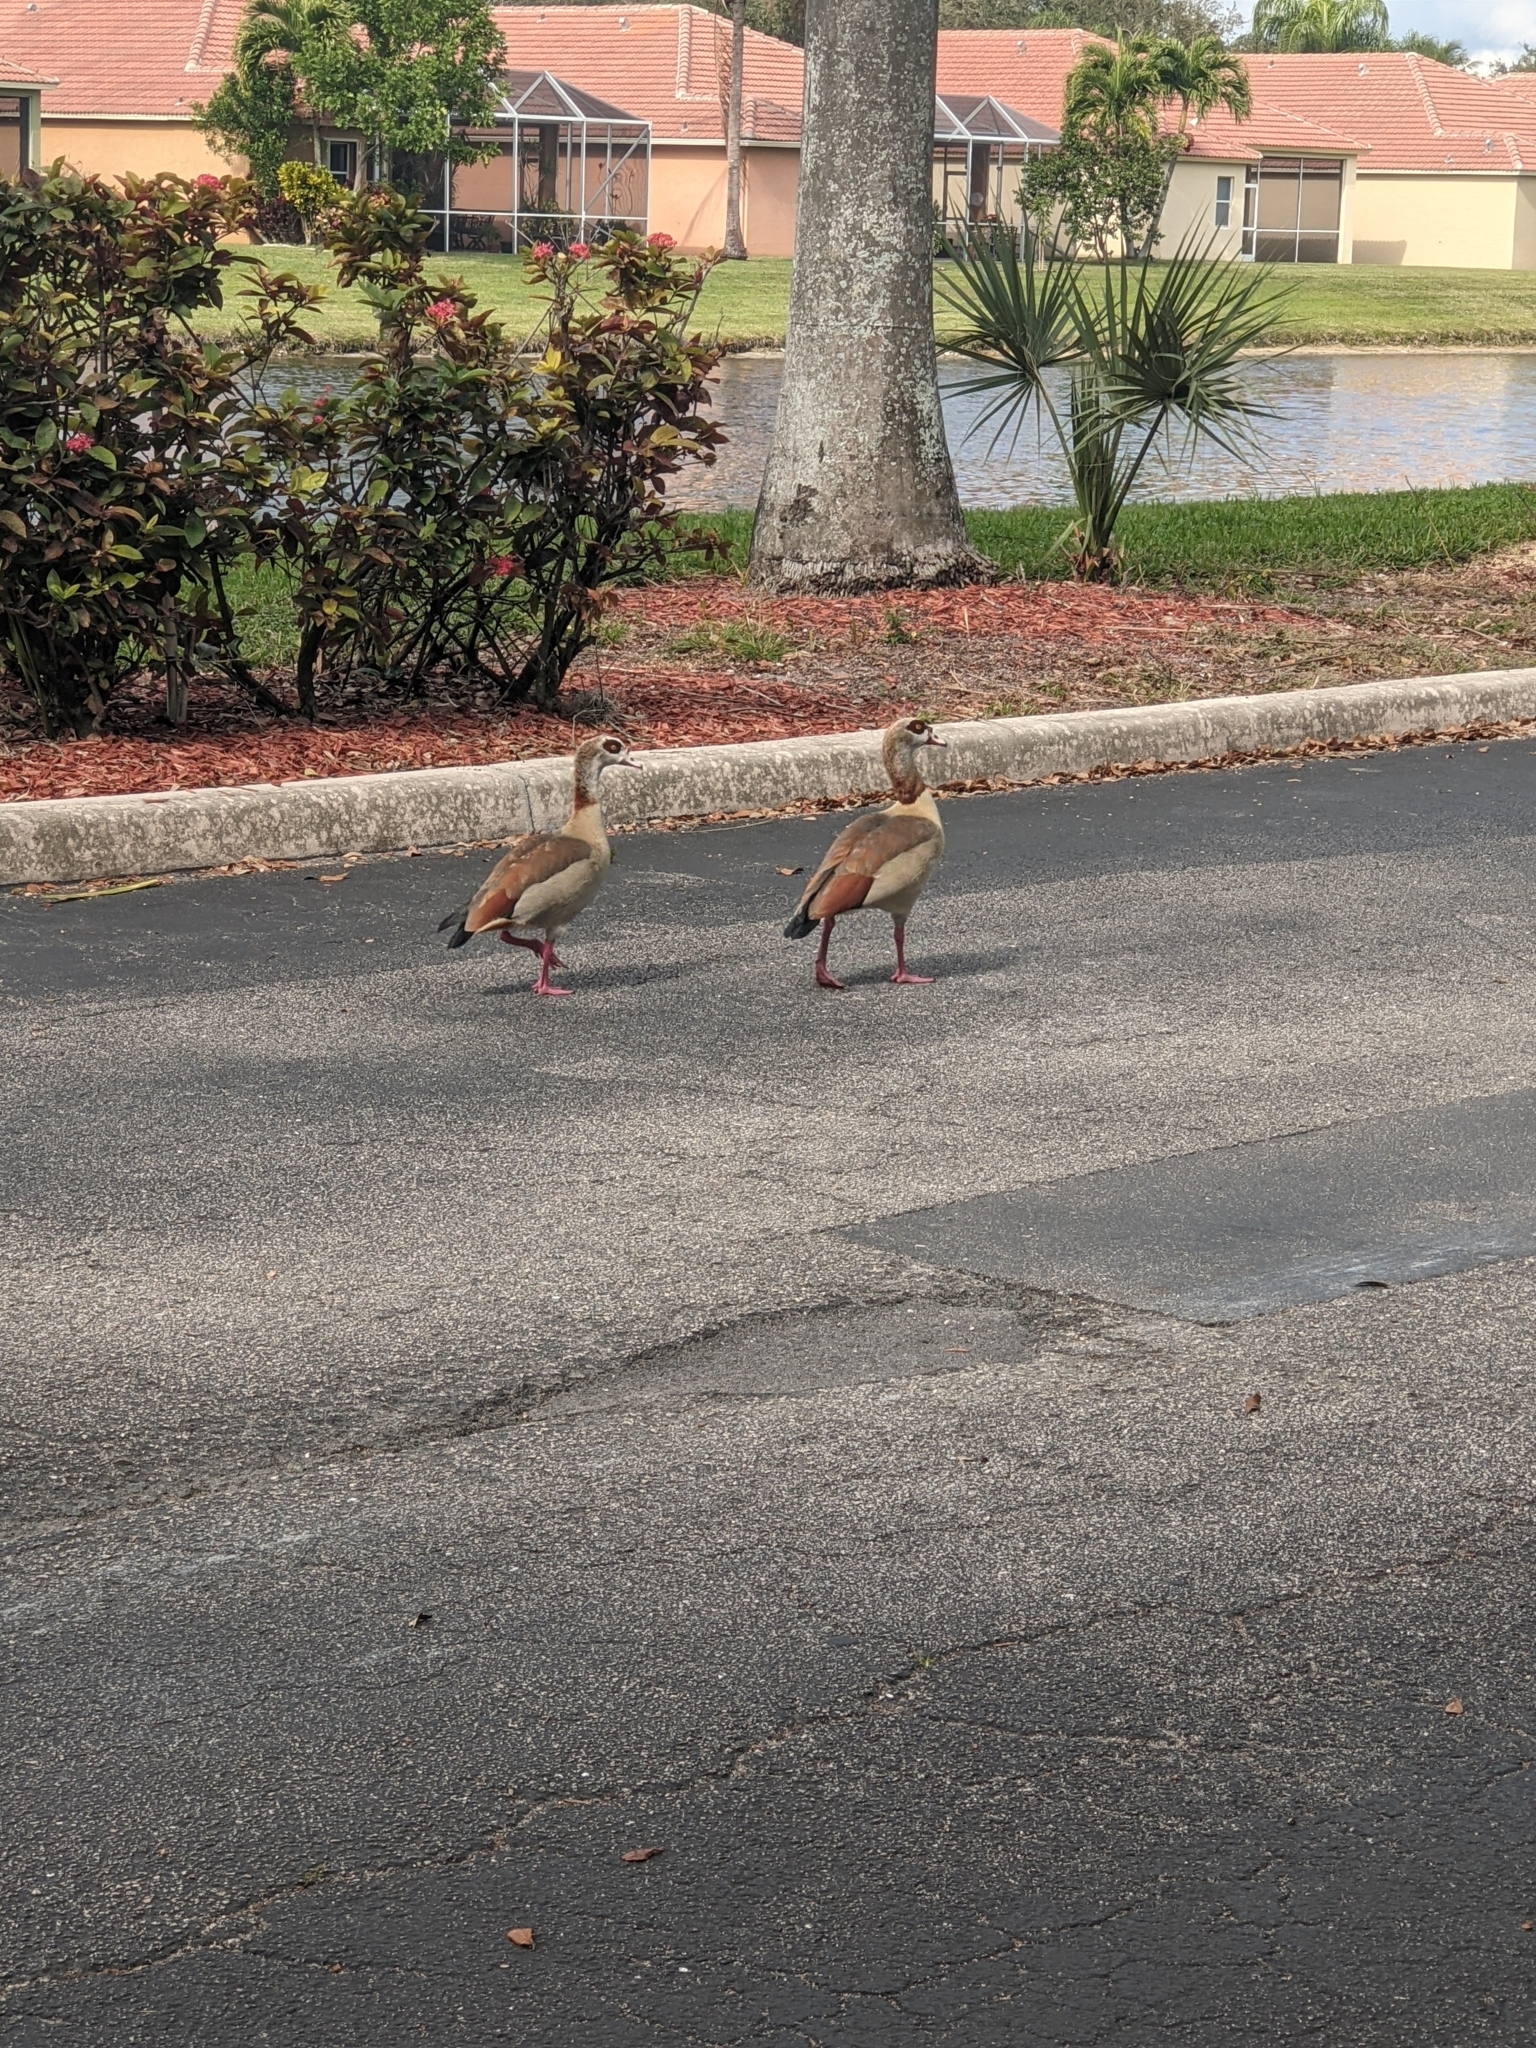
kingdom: Animalia
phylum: Chordata
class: Aves
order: Anseriformes
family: Anatidae
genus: Alopochen
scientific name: Alopochen aegyptiaca
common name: Egyptian goose
